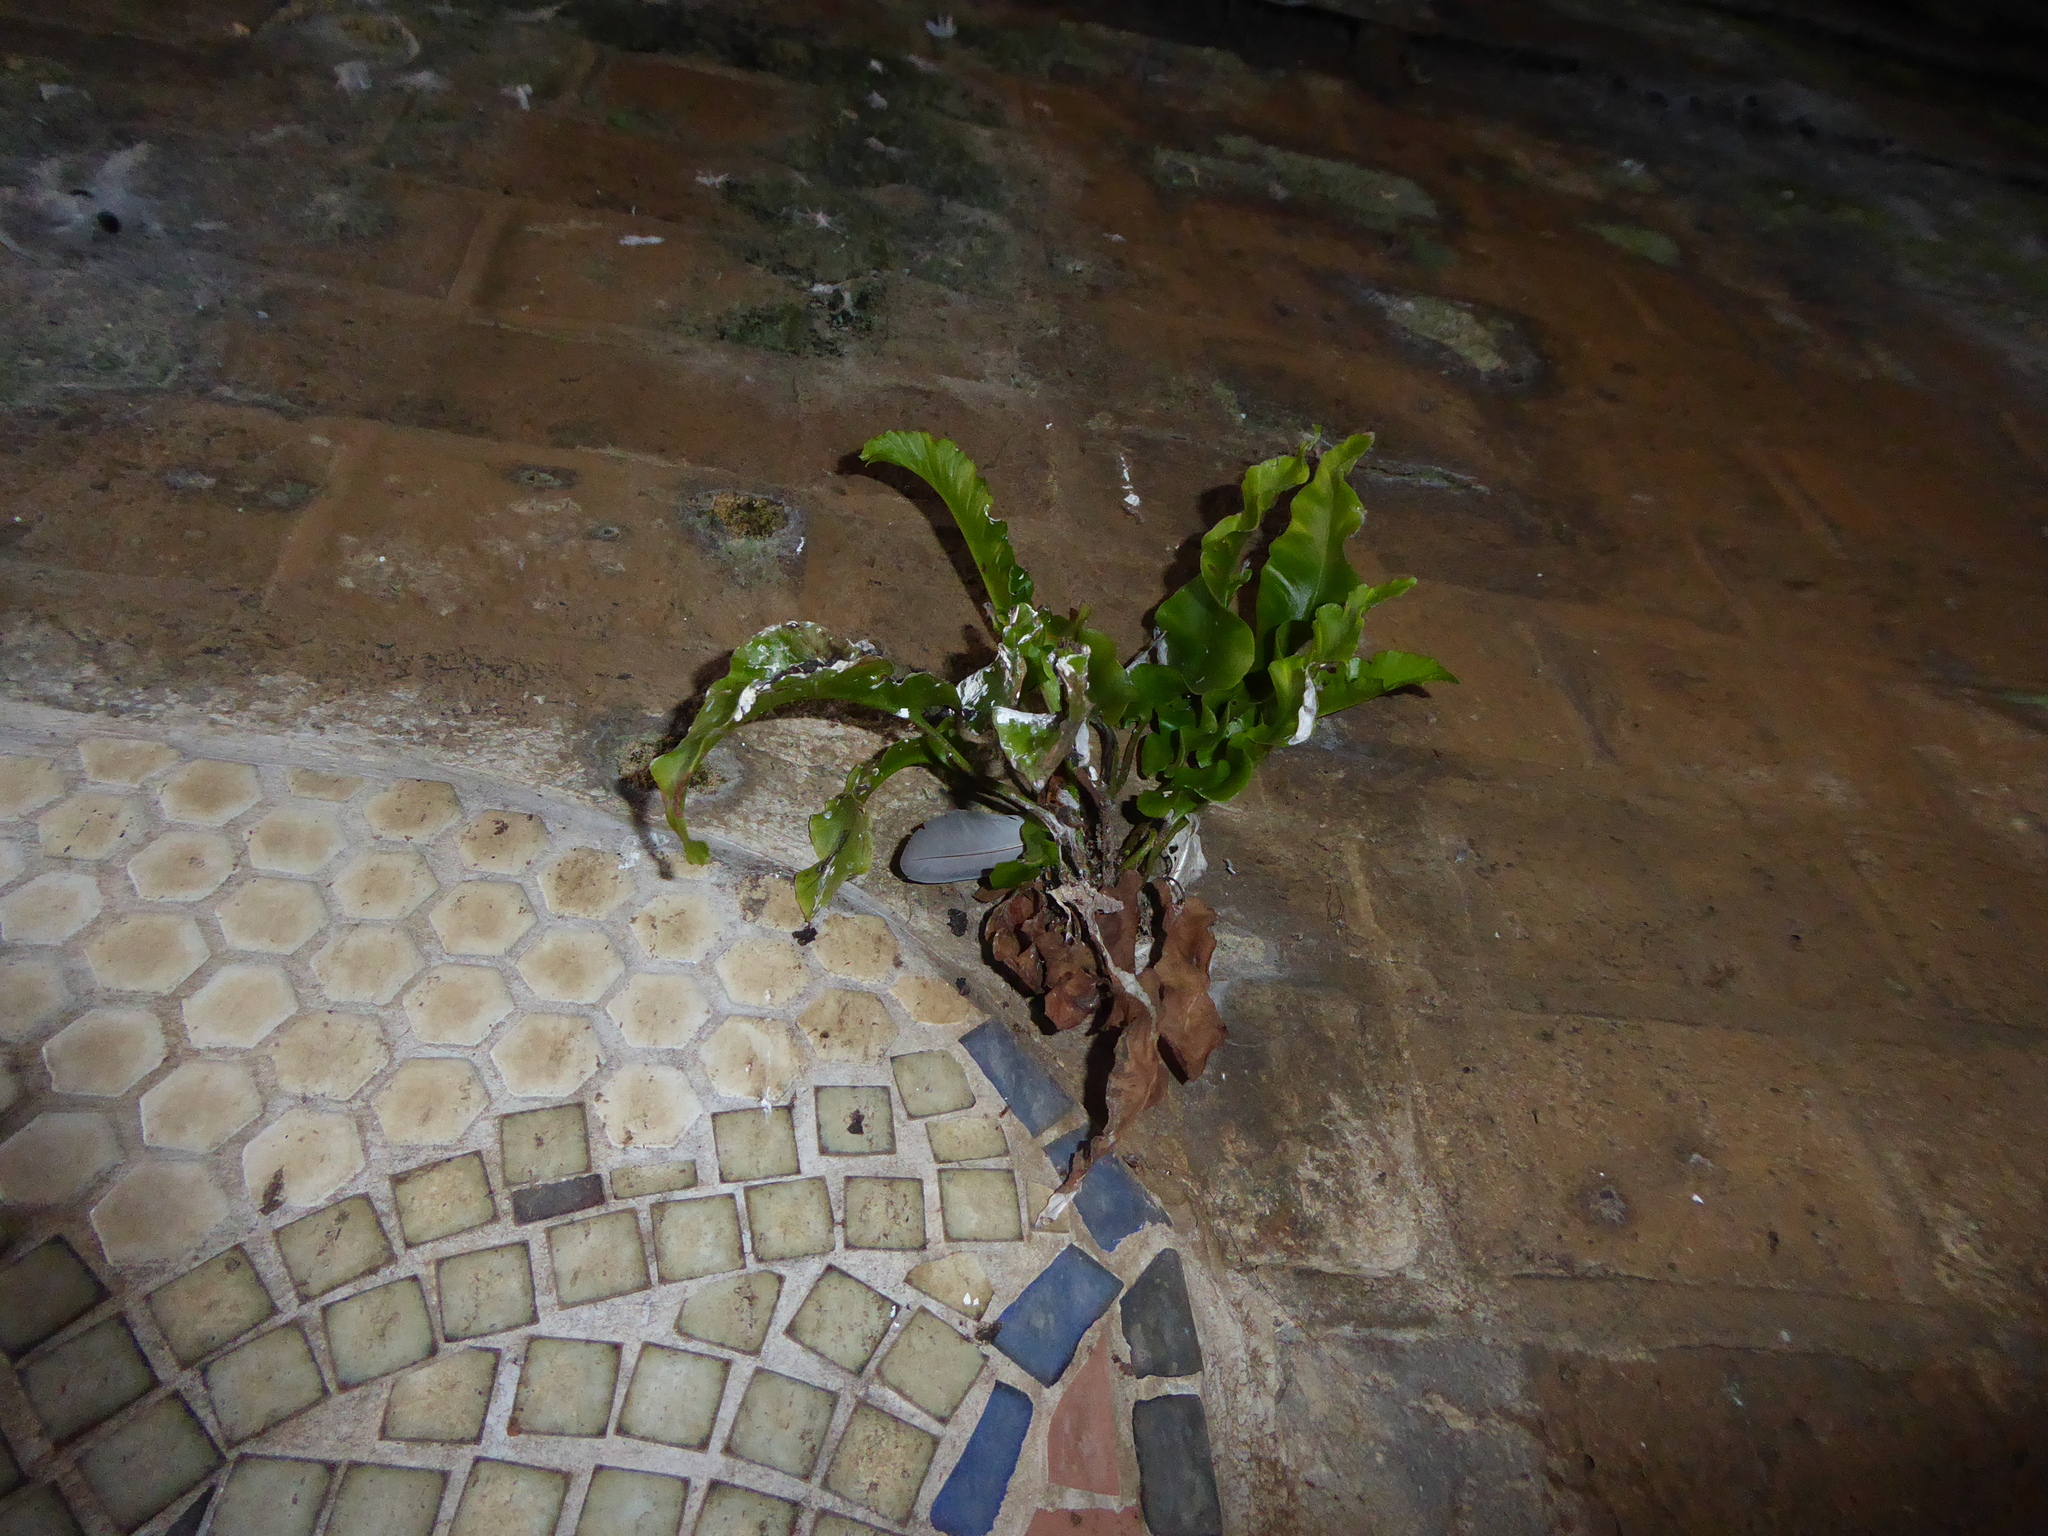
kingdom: Plantae
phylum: Tracheophyta
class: Polypodiopsida
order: Polypodiales
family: Aspleniaceae
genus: Asplenium
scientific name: Asplenium scolopendrium
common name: Hart's-tongue fern
